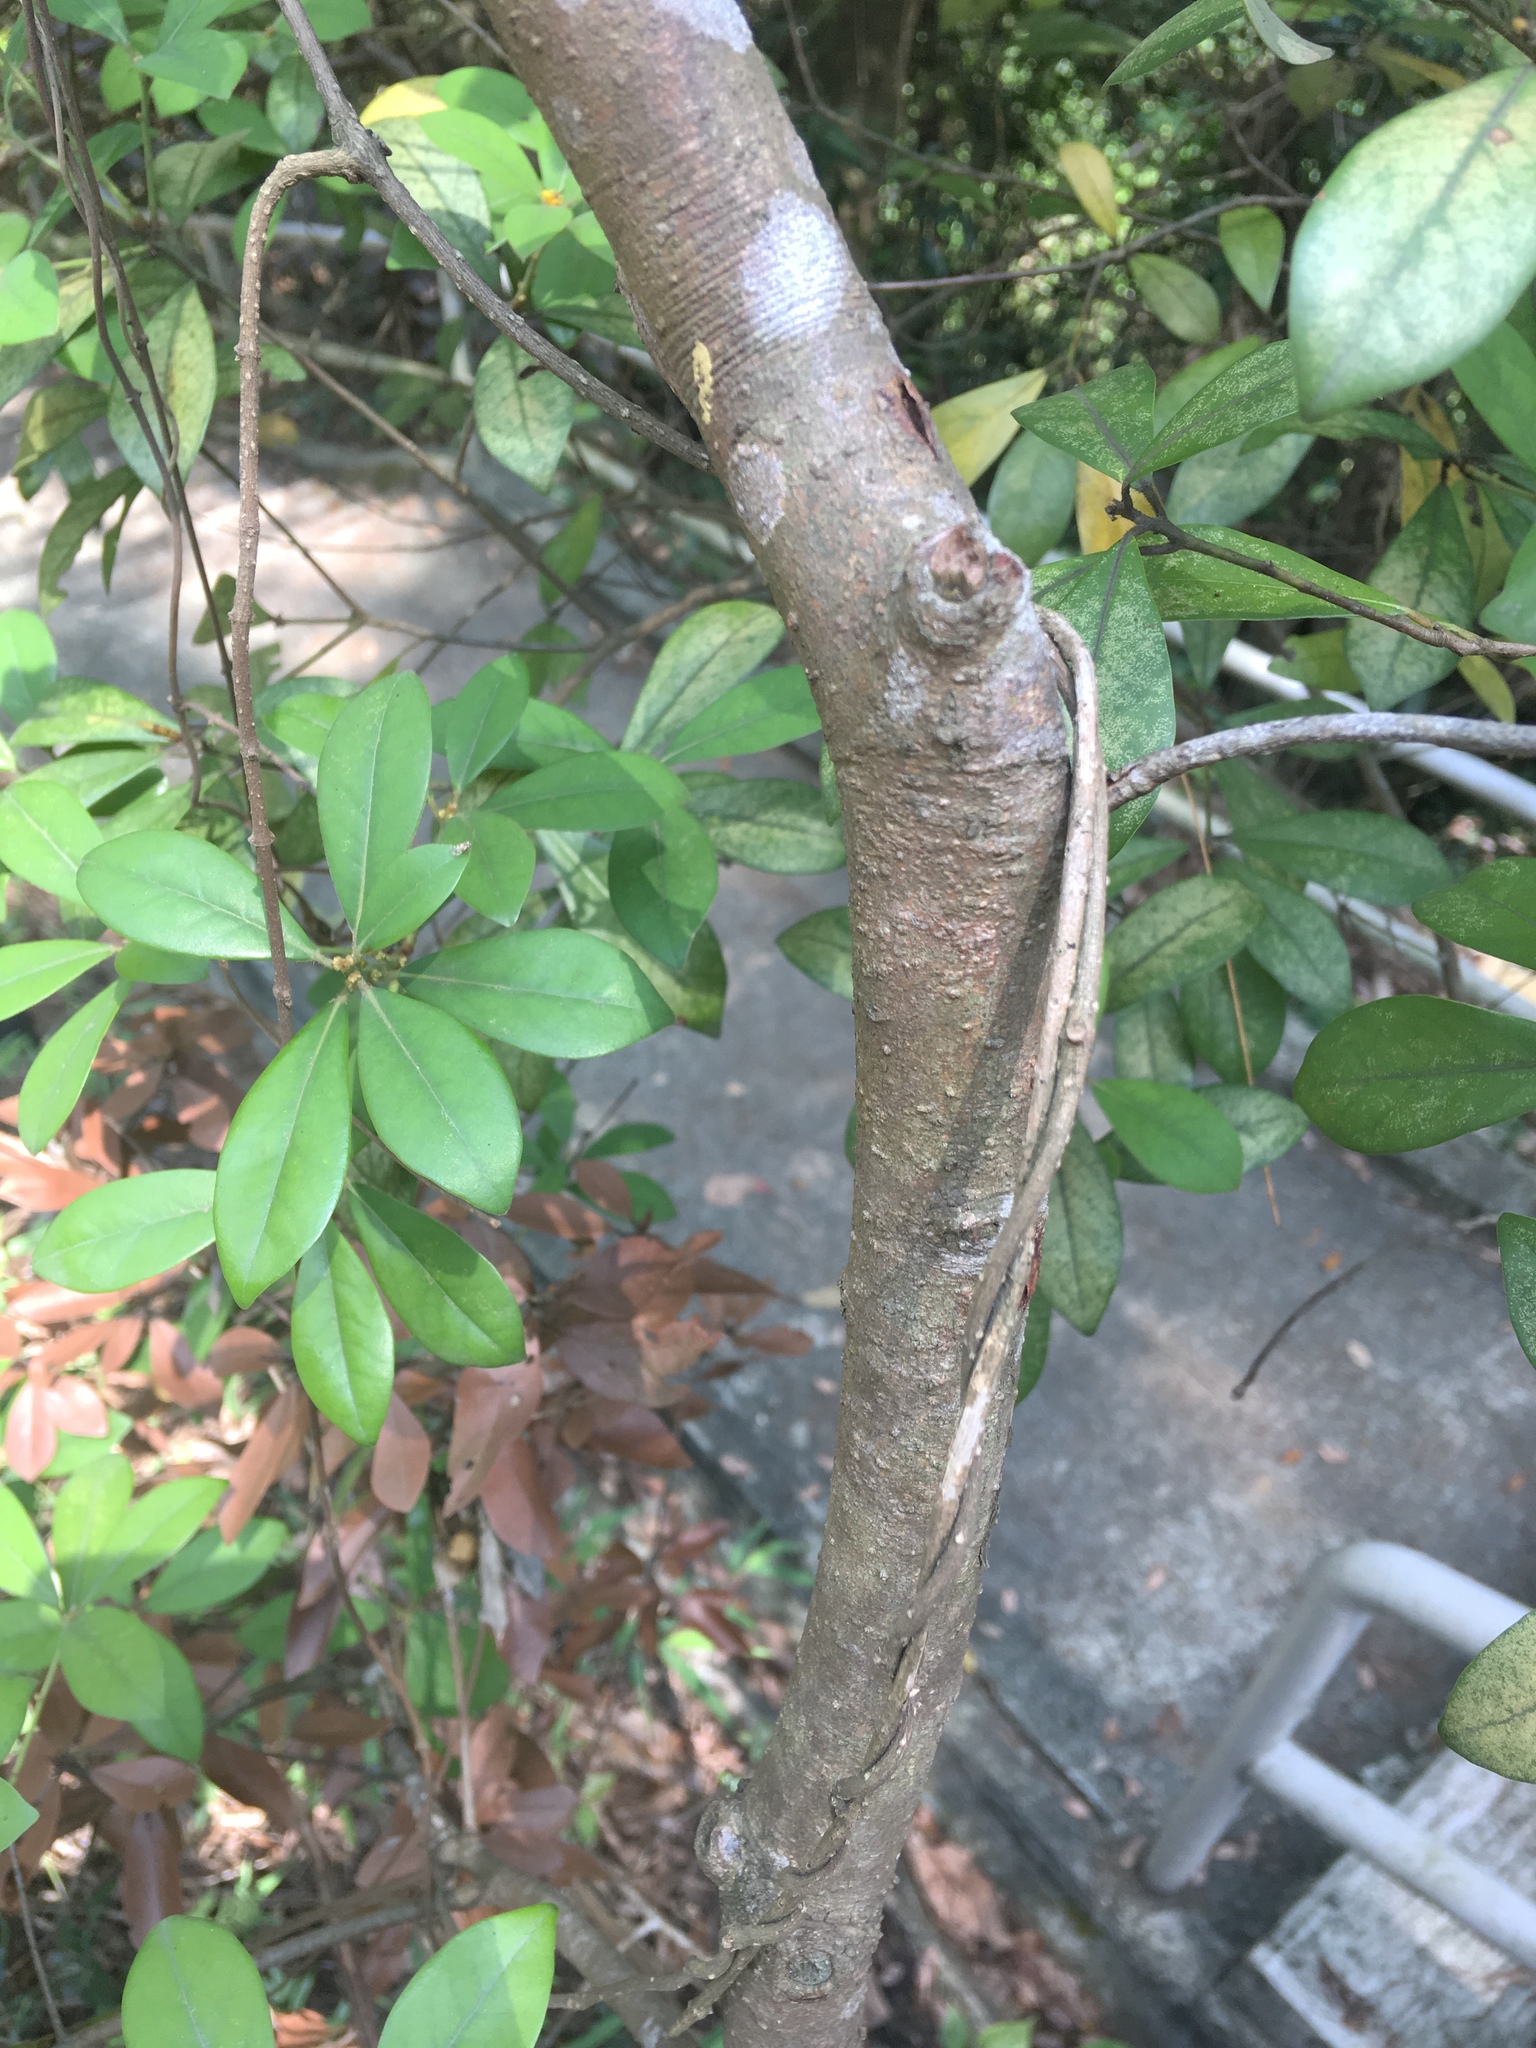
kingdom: Plantae
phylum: Tracheophyta
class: Magnoliopsida
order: Laurales
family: Lauraceae
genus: Litsea
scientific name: Litsea rotundifolia
